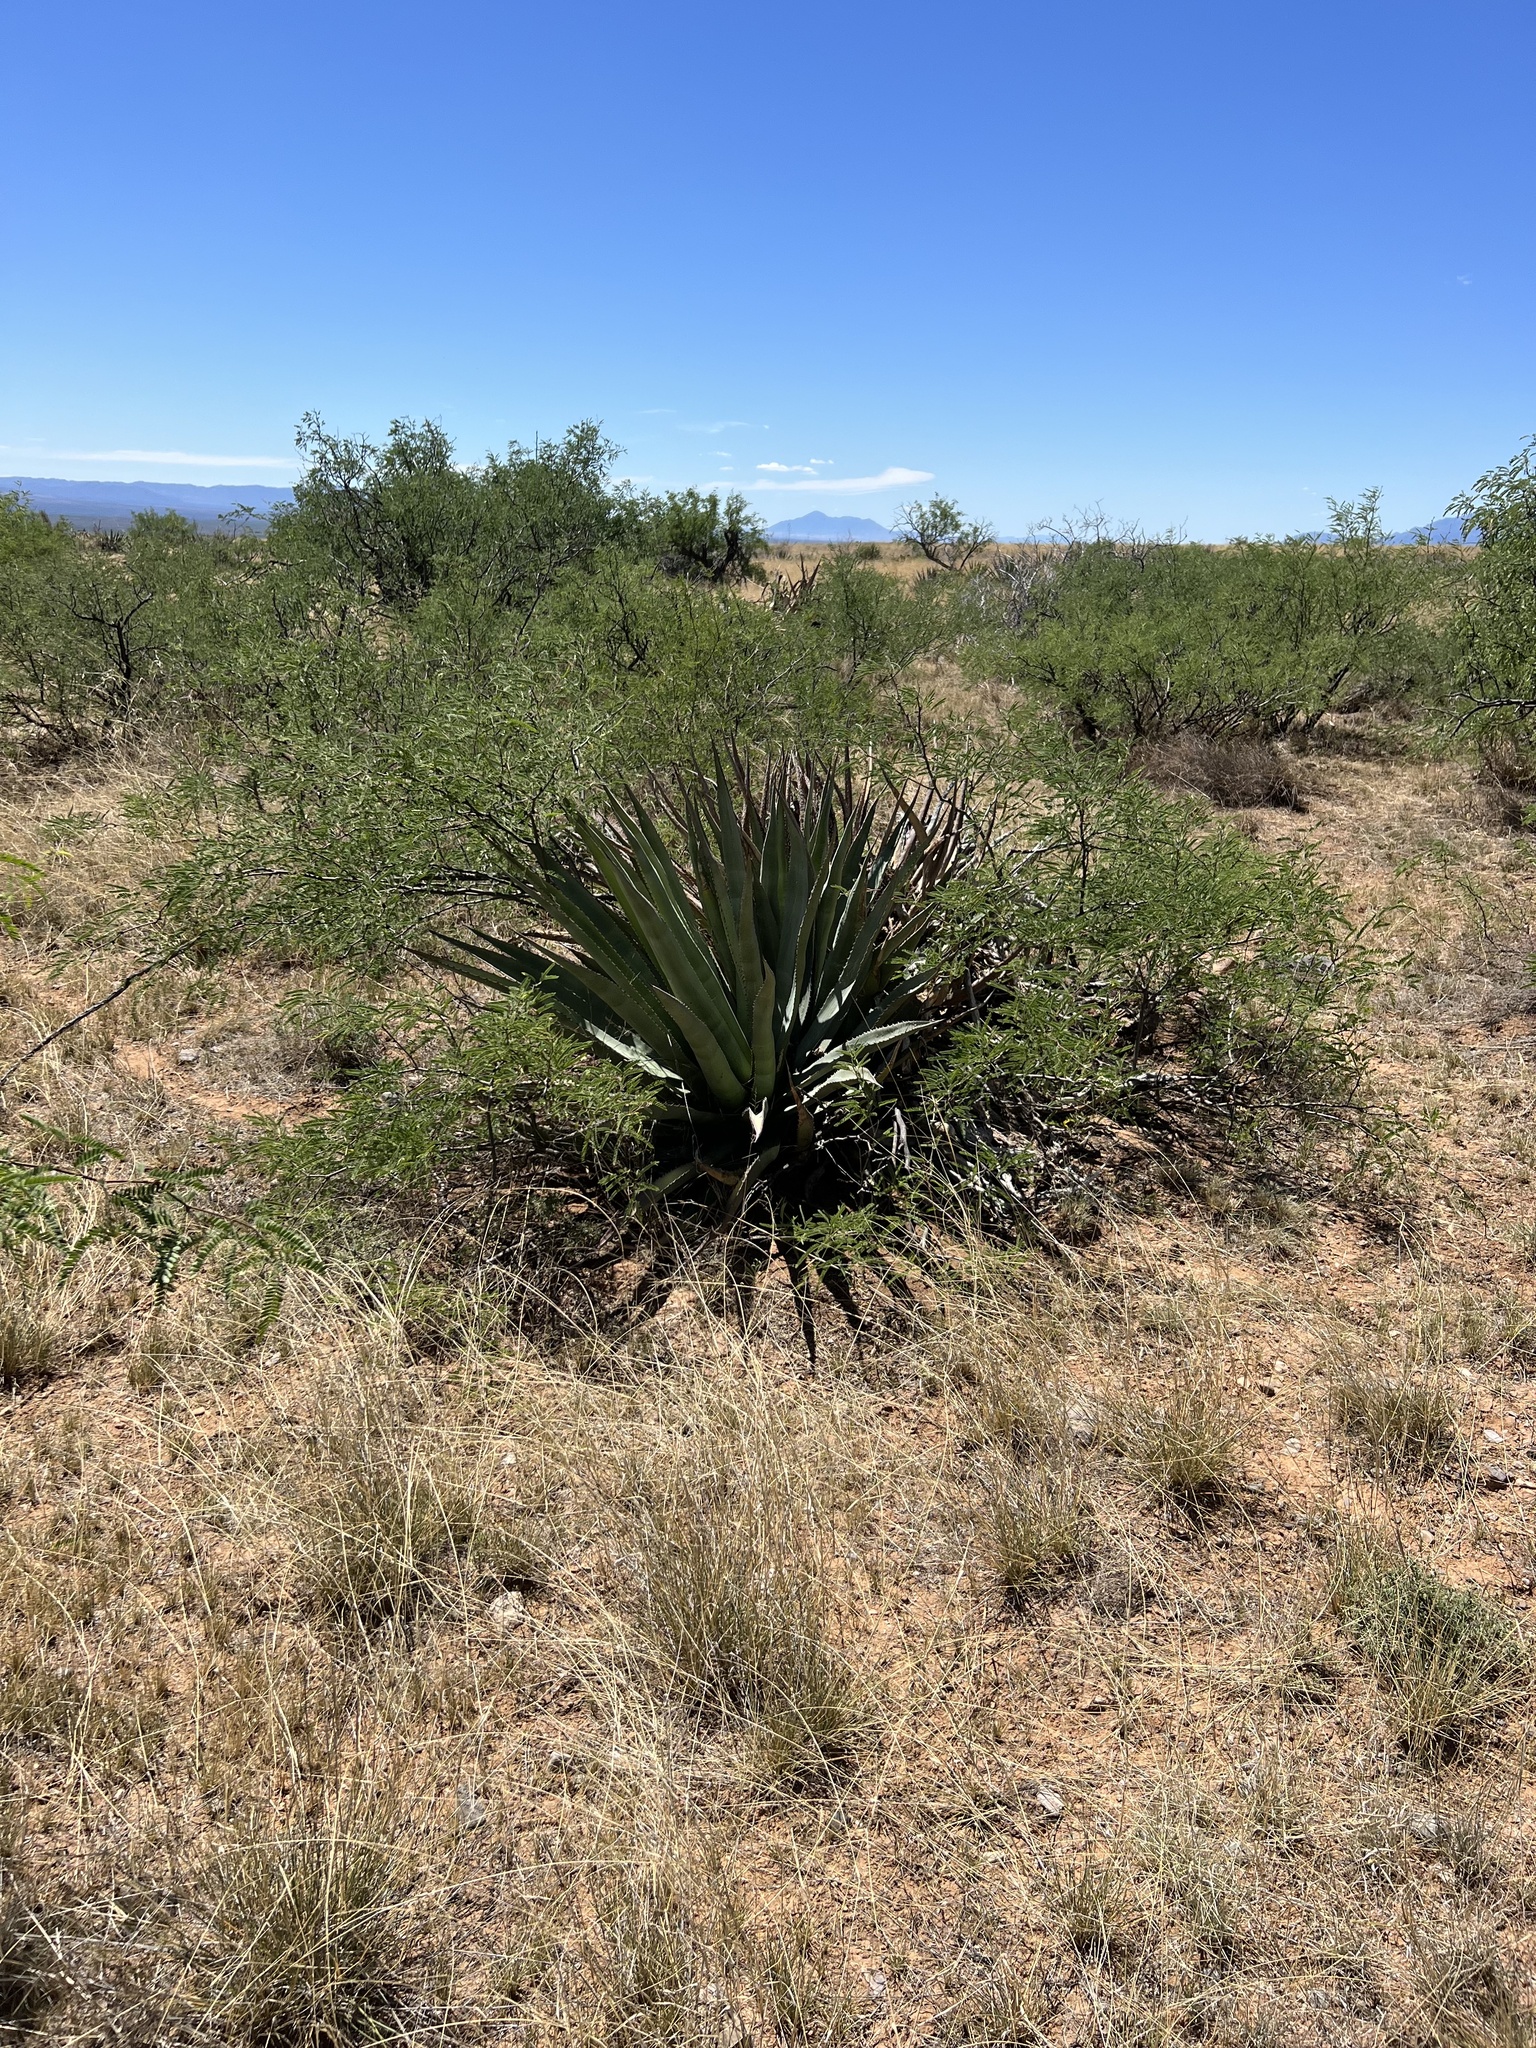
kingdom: Plantae
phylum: Tracheophyta
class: Liliopsida
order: Asparagales
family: Asparagaceae
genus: Agave
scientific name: Agave palmeri
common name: Palmer agave
